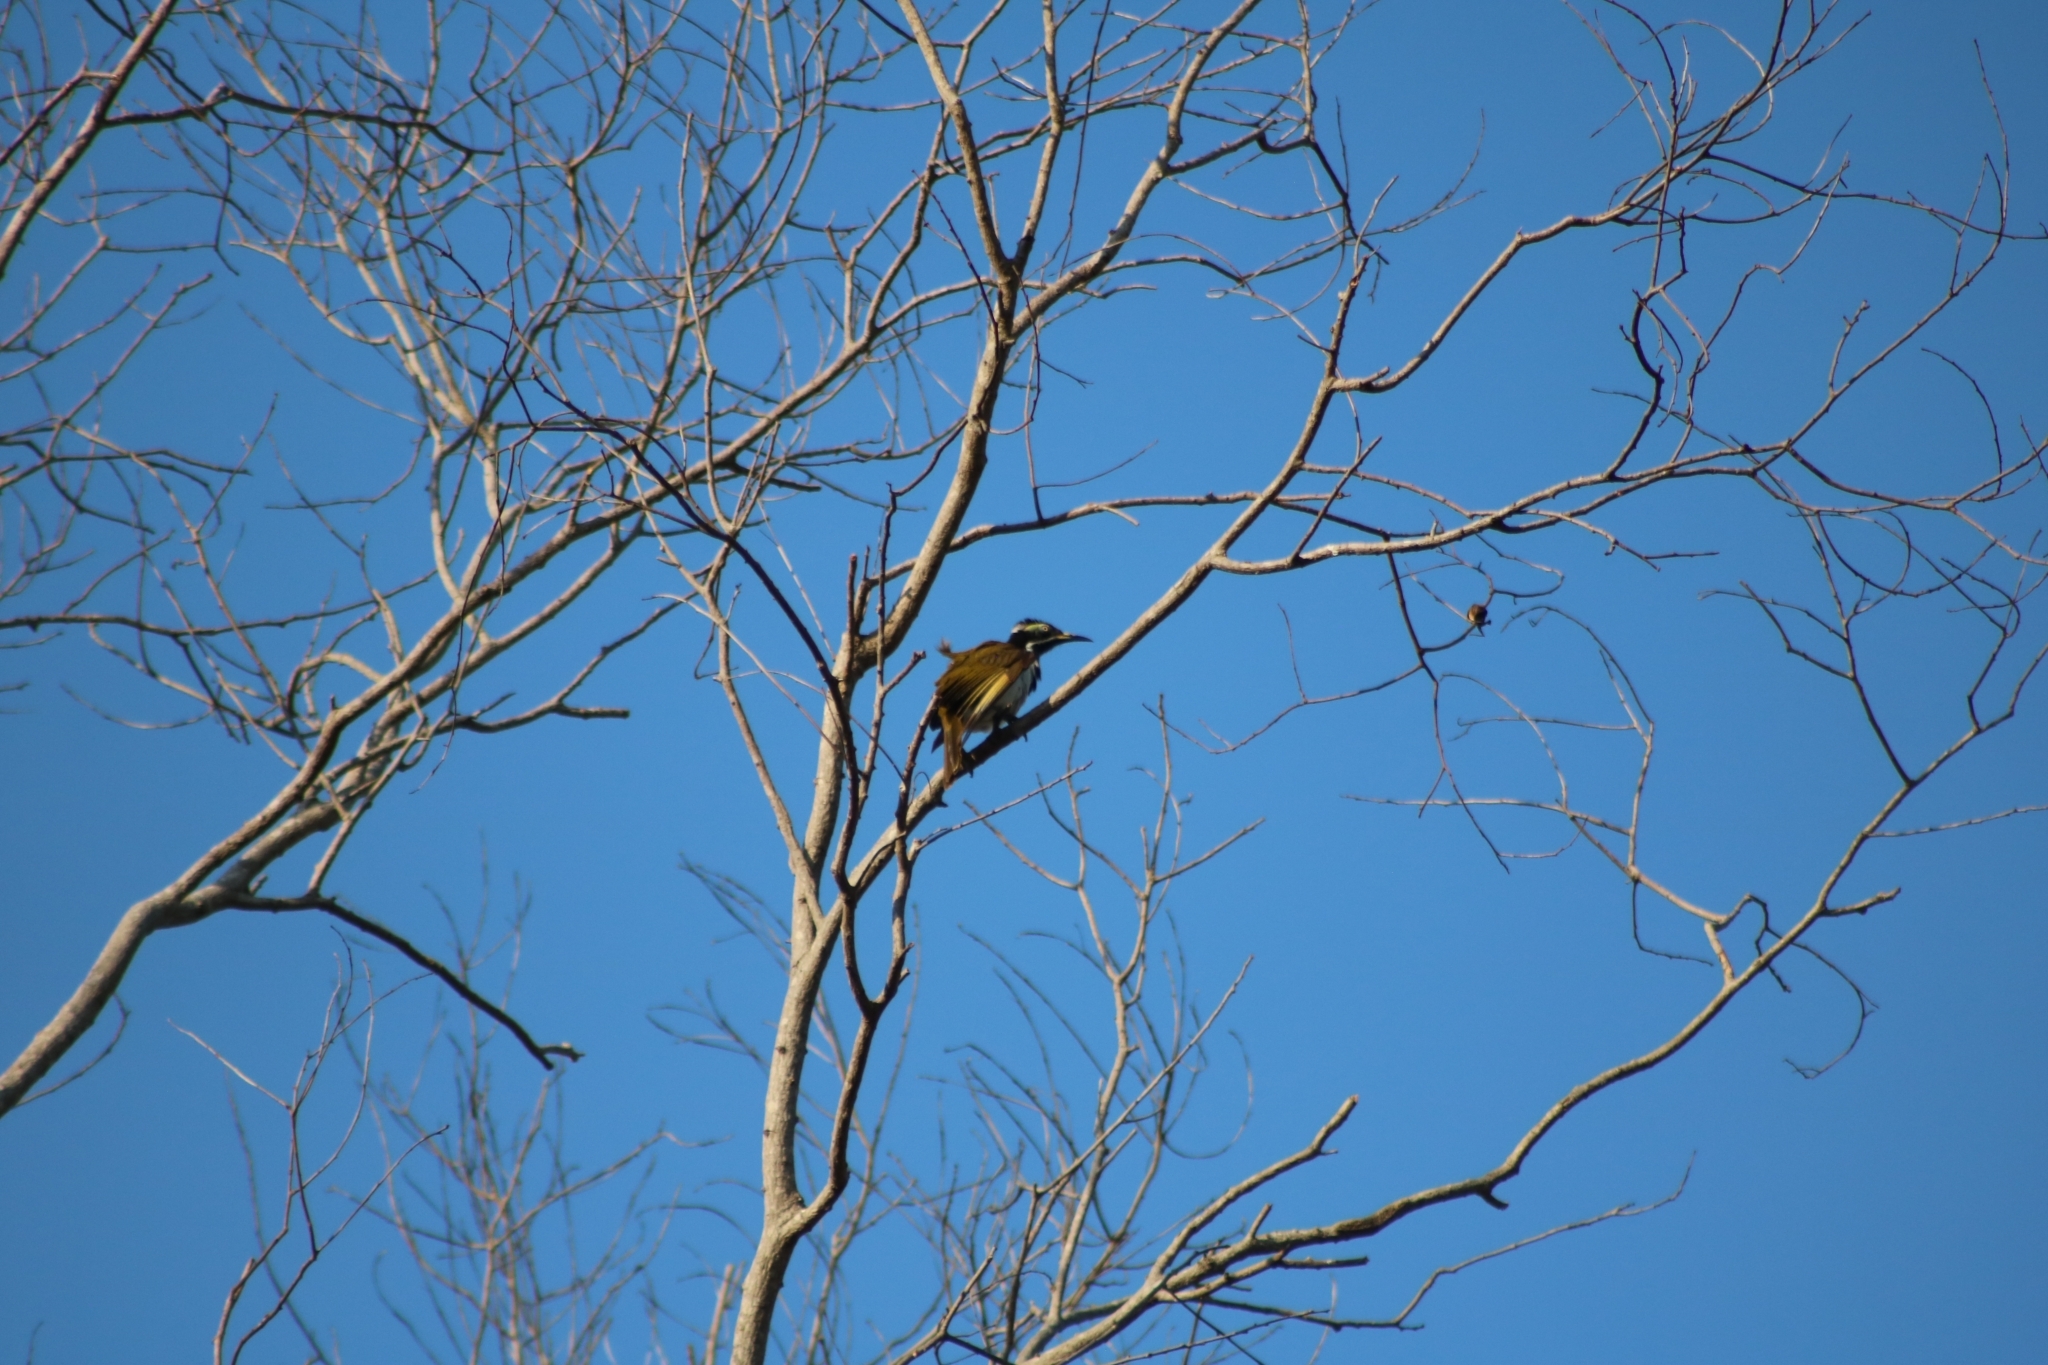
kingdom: Animalia
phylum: Chordata
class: Aves
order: Passeriformes
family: Meliphagidae
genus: Entomyzon
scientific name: Entomyzon cyanotis
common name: Blue-faced honeyeater
